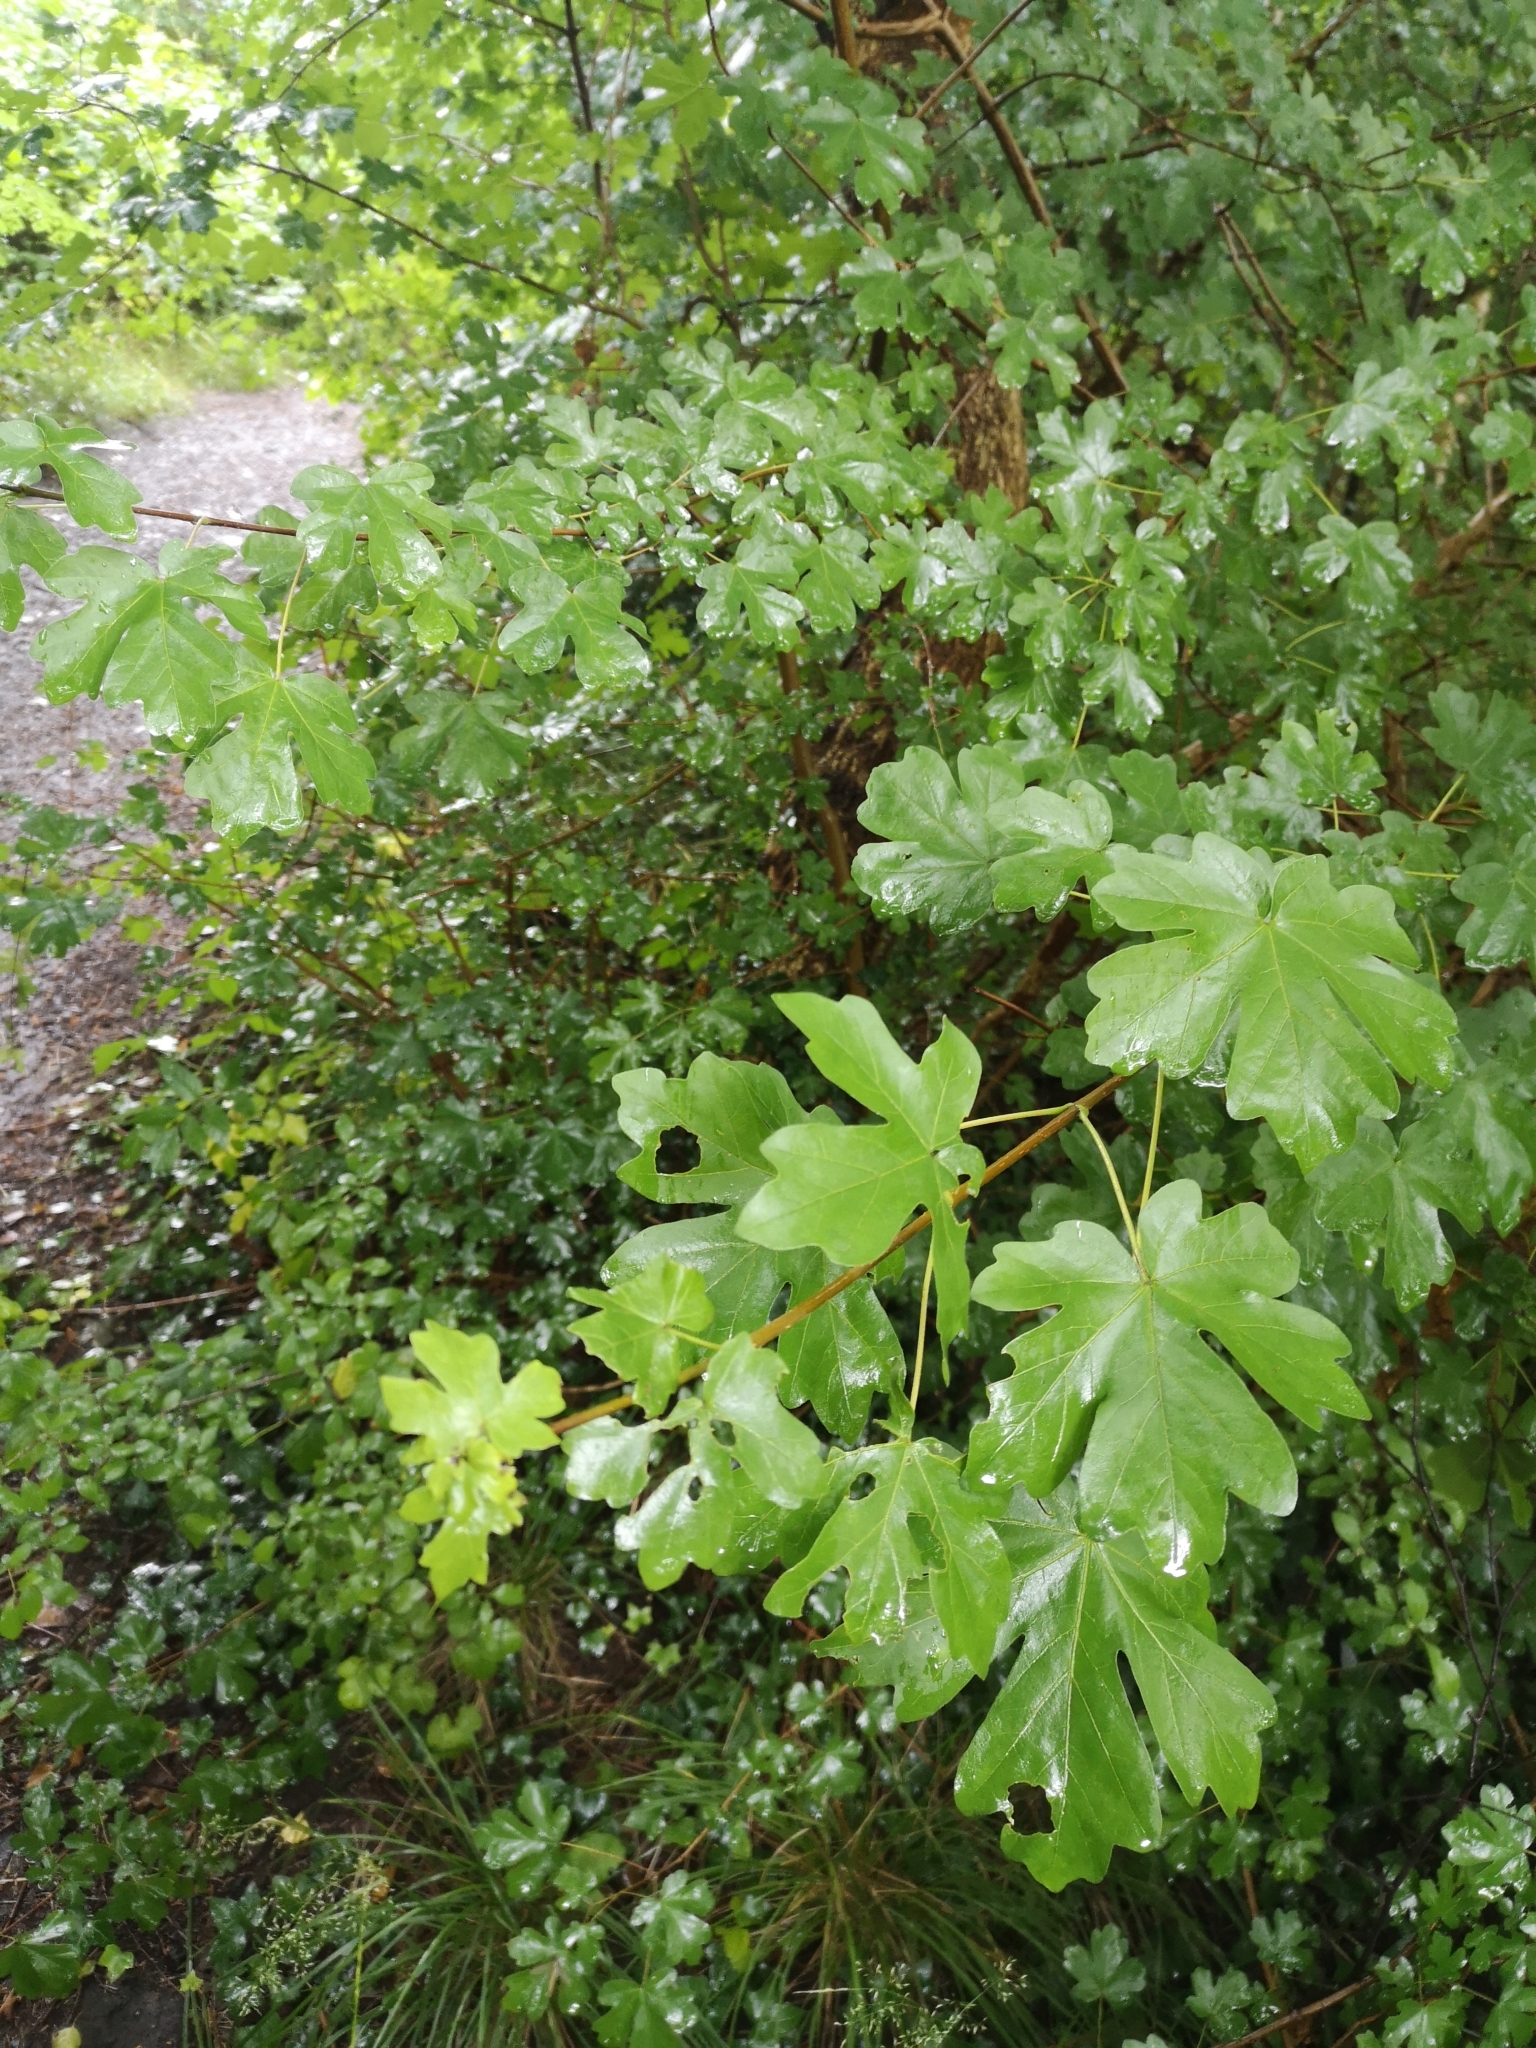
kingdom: Plantae
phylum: Tracheophyta
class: Magnoliopsida
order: Sapindales
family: Sapindaceae
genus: Acer
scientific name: Acer campestre
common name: Field maple
